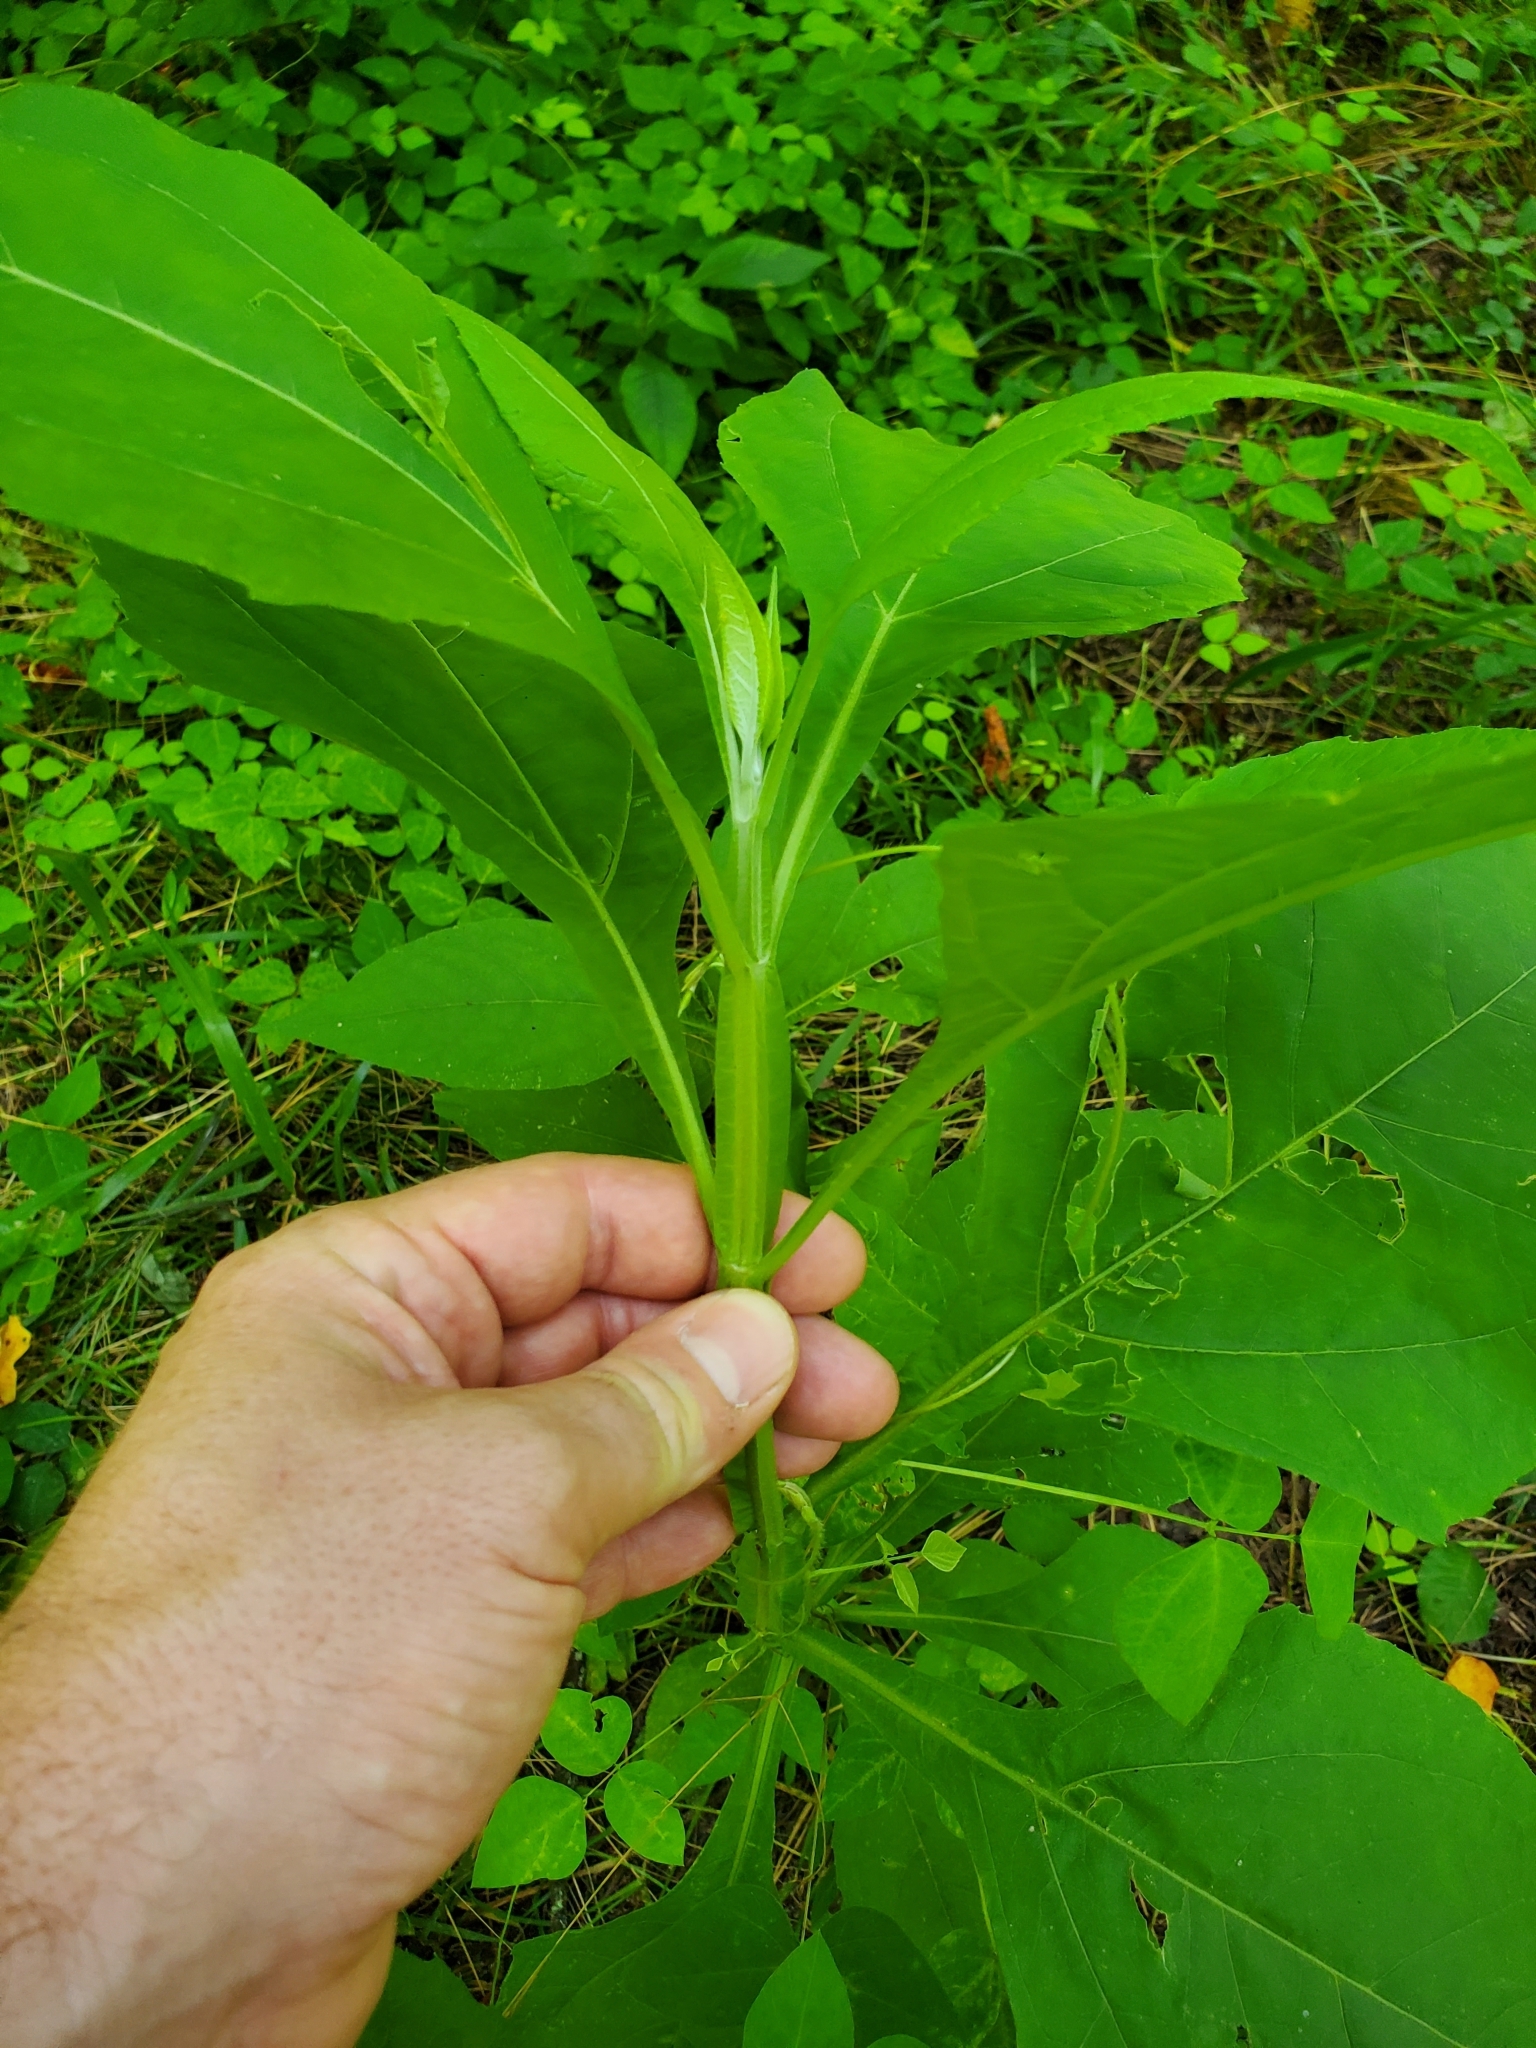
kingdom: Plantae
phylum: Tracheophyta
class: Magnoliopsida
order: Asterales
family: Asteraceae
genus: Verbesina
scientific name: Verbesina occidentalis
